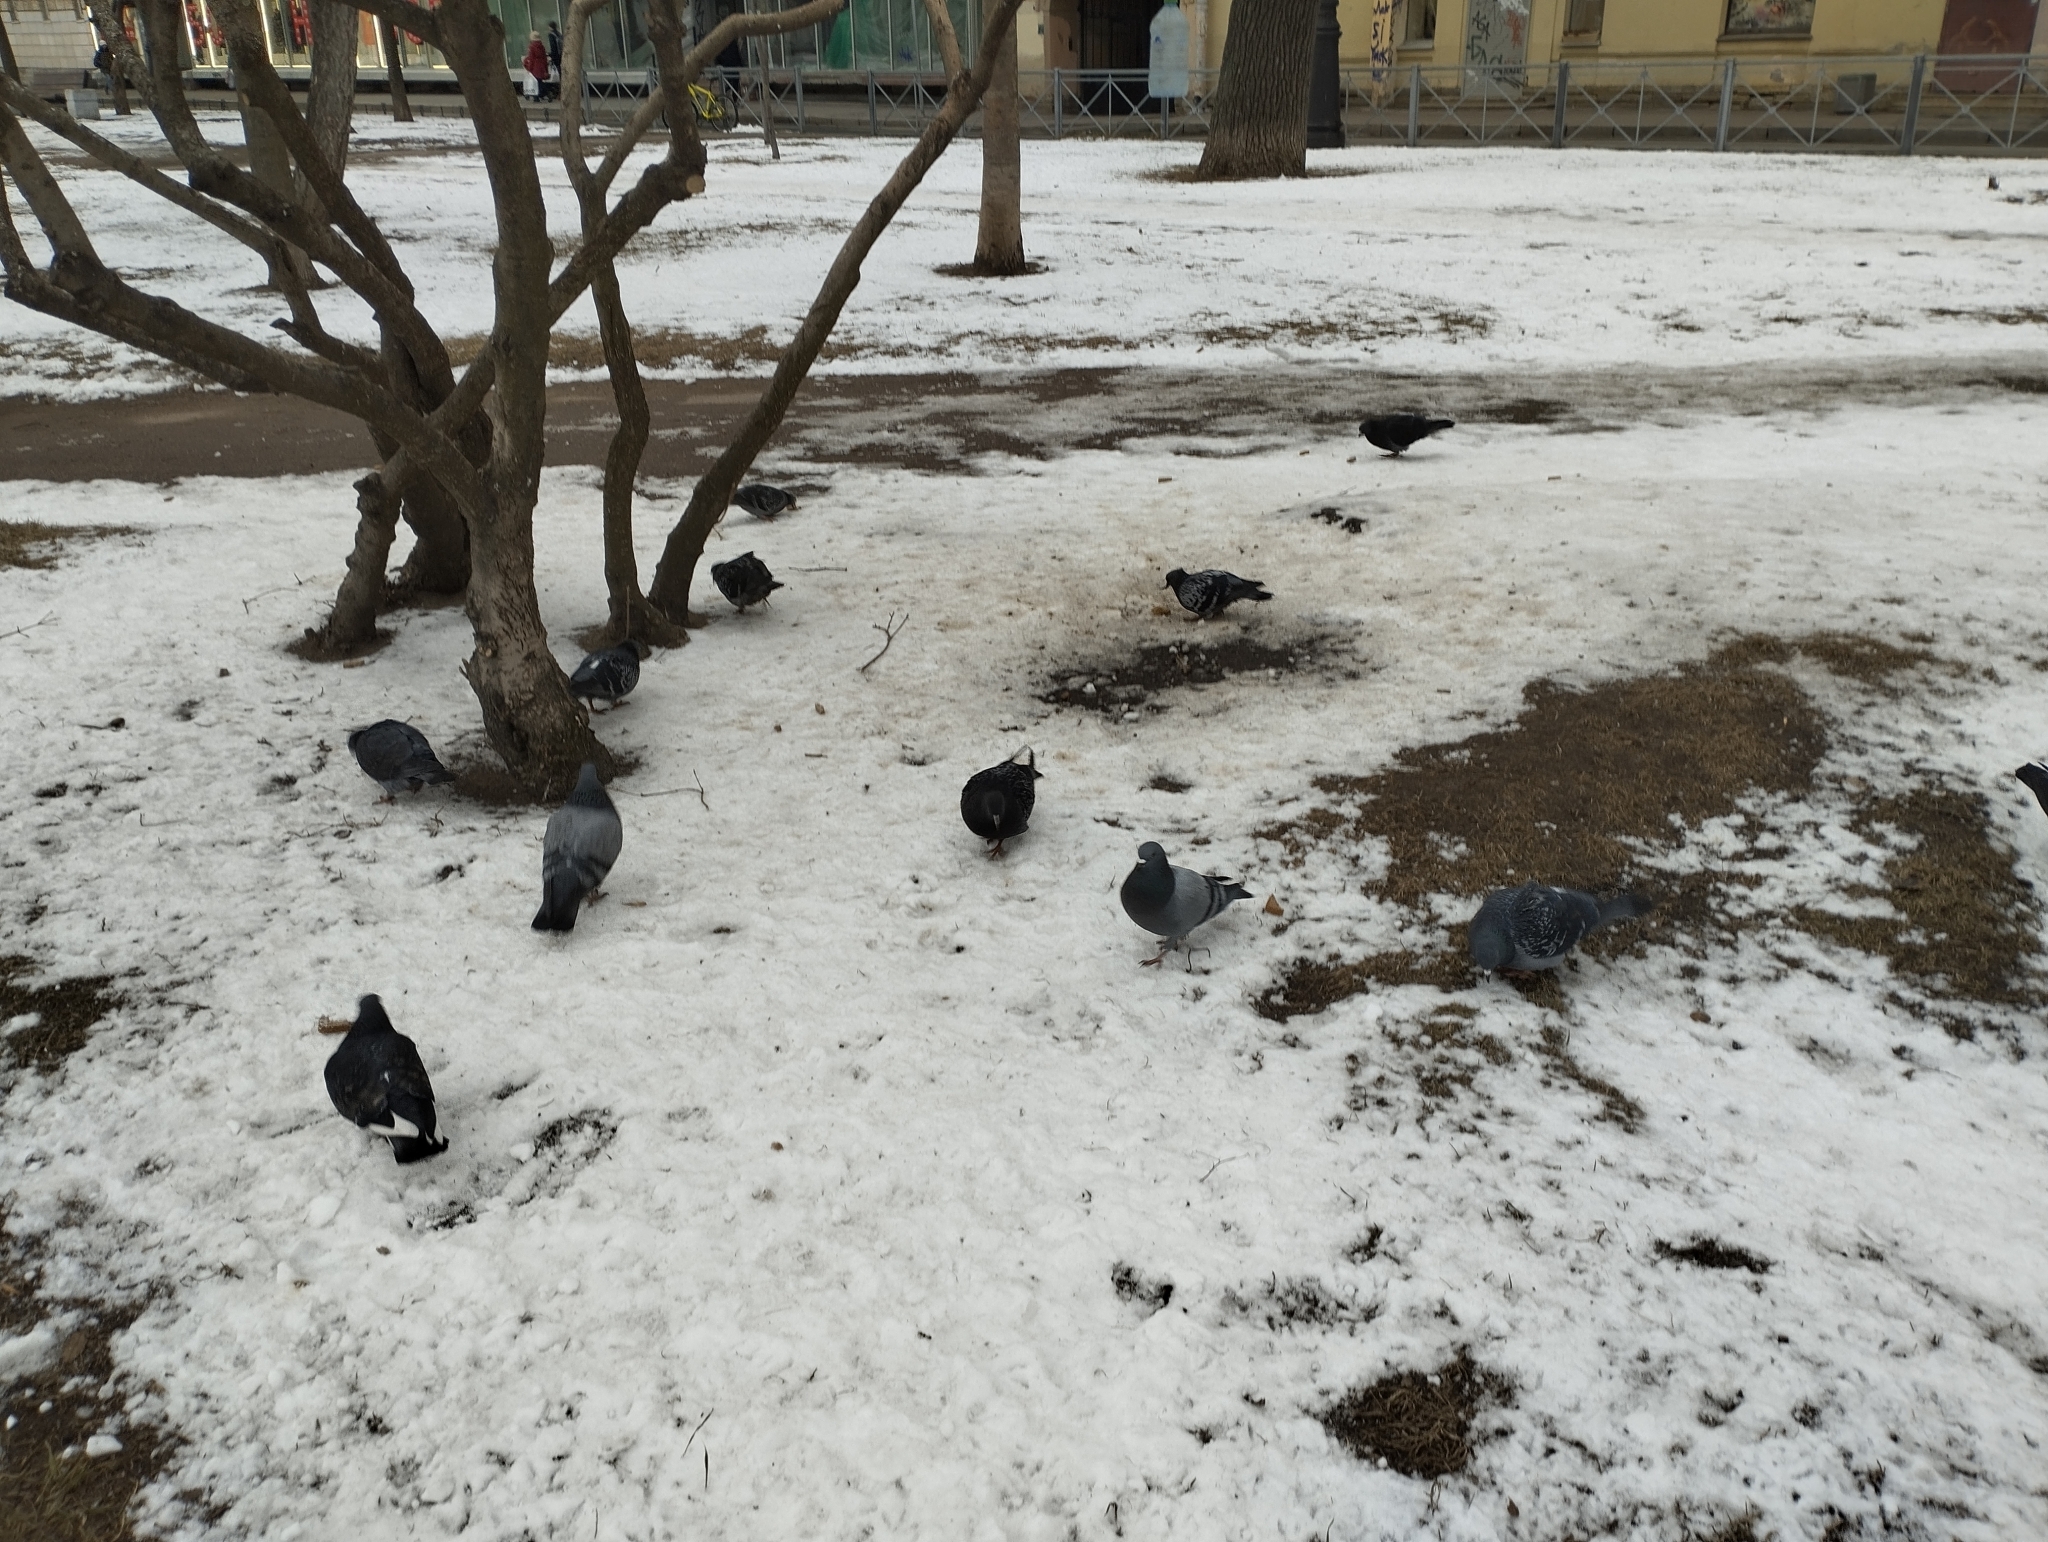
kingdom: Animalia
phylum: Chordata
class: Aves
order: Columbiformes
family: Columbidae
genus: Columba
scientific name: Columba livia
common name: Rock pigeon
